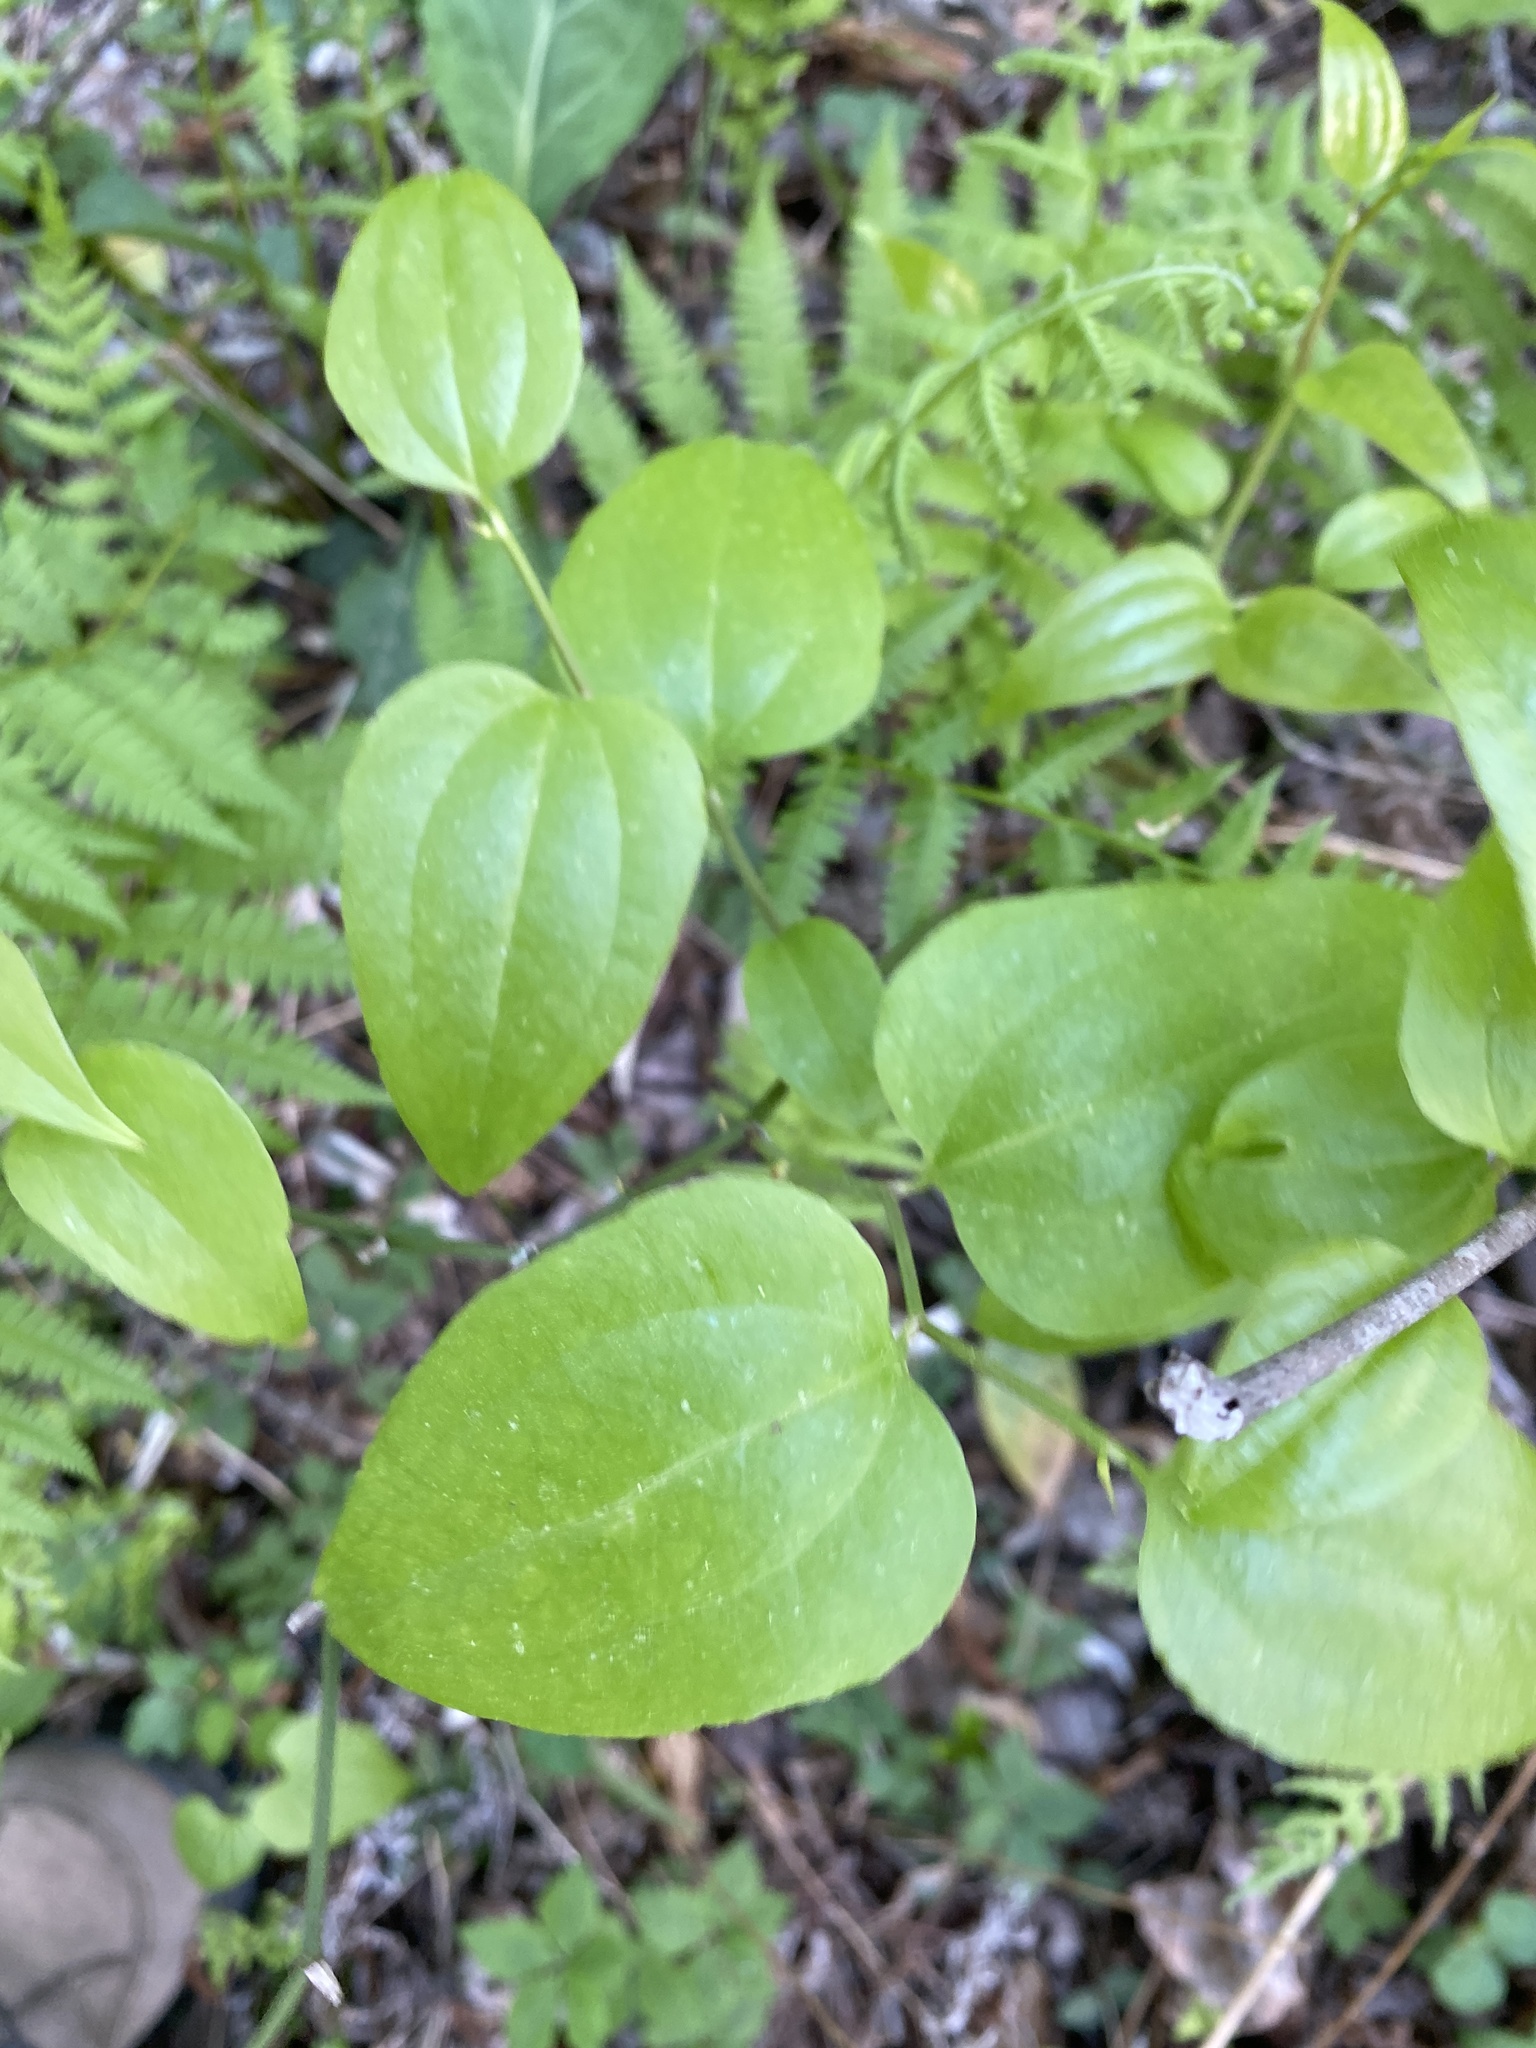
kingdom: Plantae
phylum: Tracheophyta
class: Liliopsida
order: Liliales
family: Smilacaceae
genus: Smilax
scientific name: Smilax rotundifolia
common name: Bullbriar
